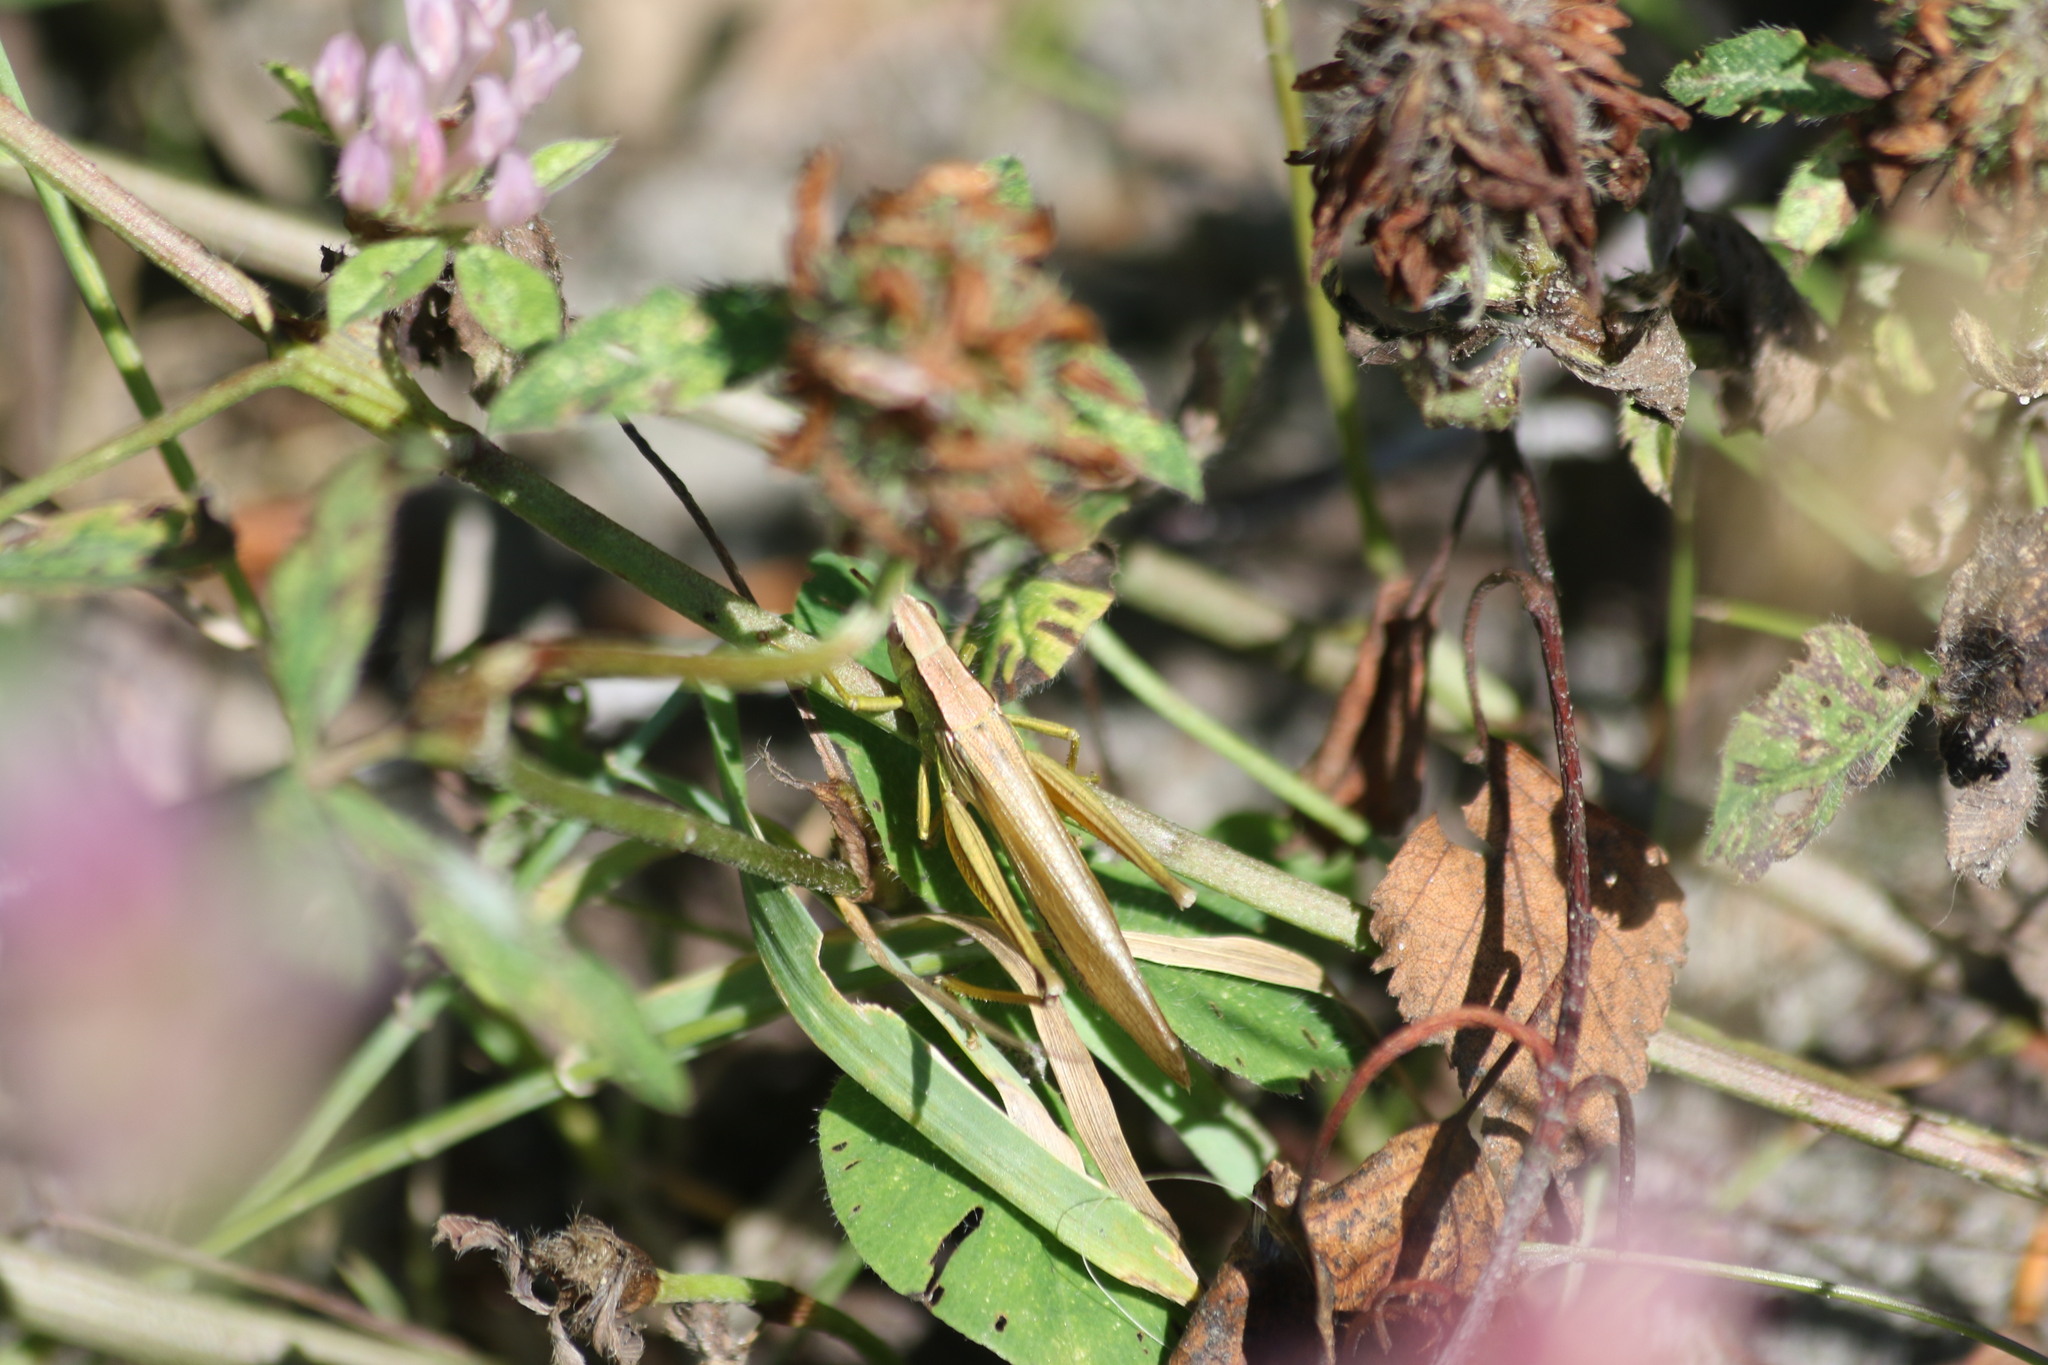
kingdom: Animalia
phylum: Arthropoda
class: Insecta
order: Orthoptera
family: Acrididae
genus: Chrysochraon
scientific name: Chrysochraon dispar
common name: Large gold grasshopper
